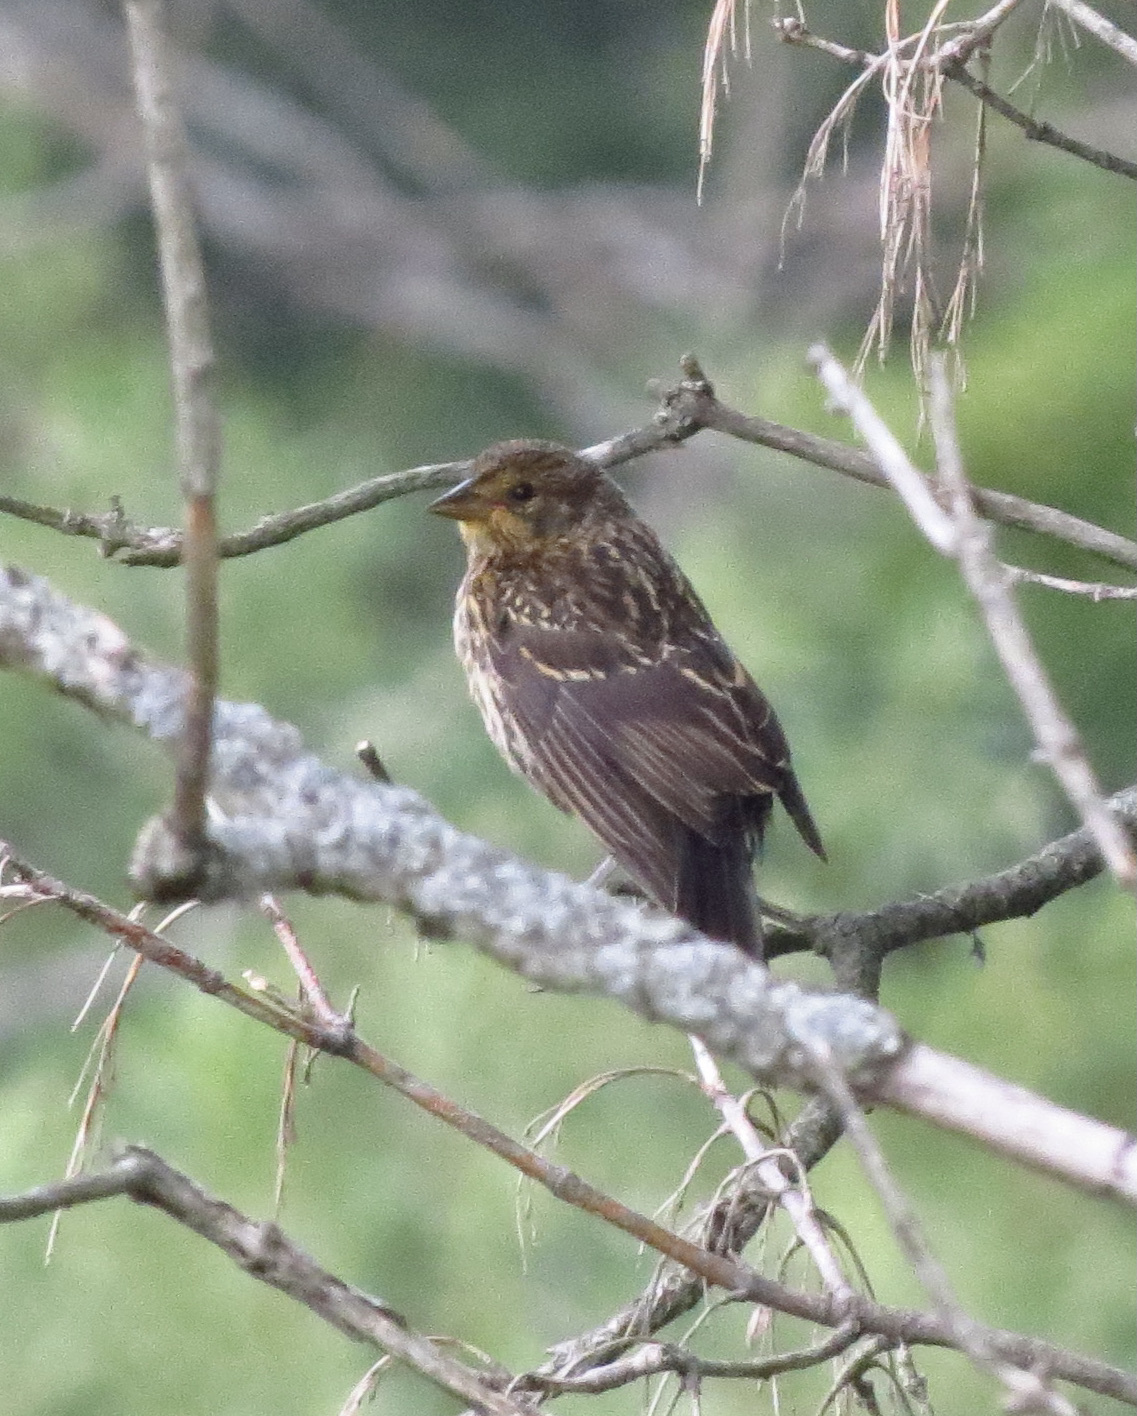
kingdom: Animalia
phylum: Chordata
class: Aves
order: Passeriformes
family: Icteridae
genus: Agelaius
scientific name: Agelaius phoeniceus
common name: Red-winged blackbird
